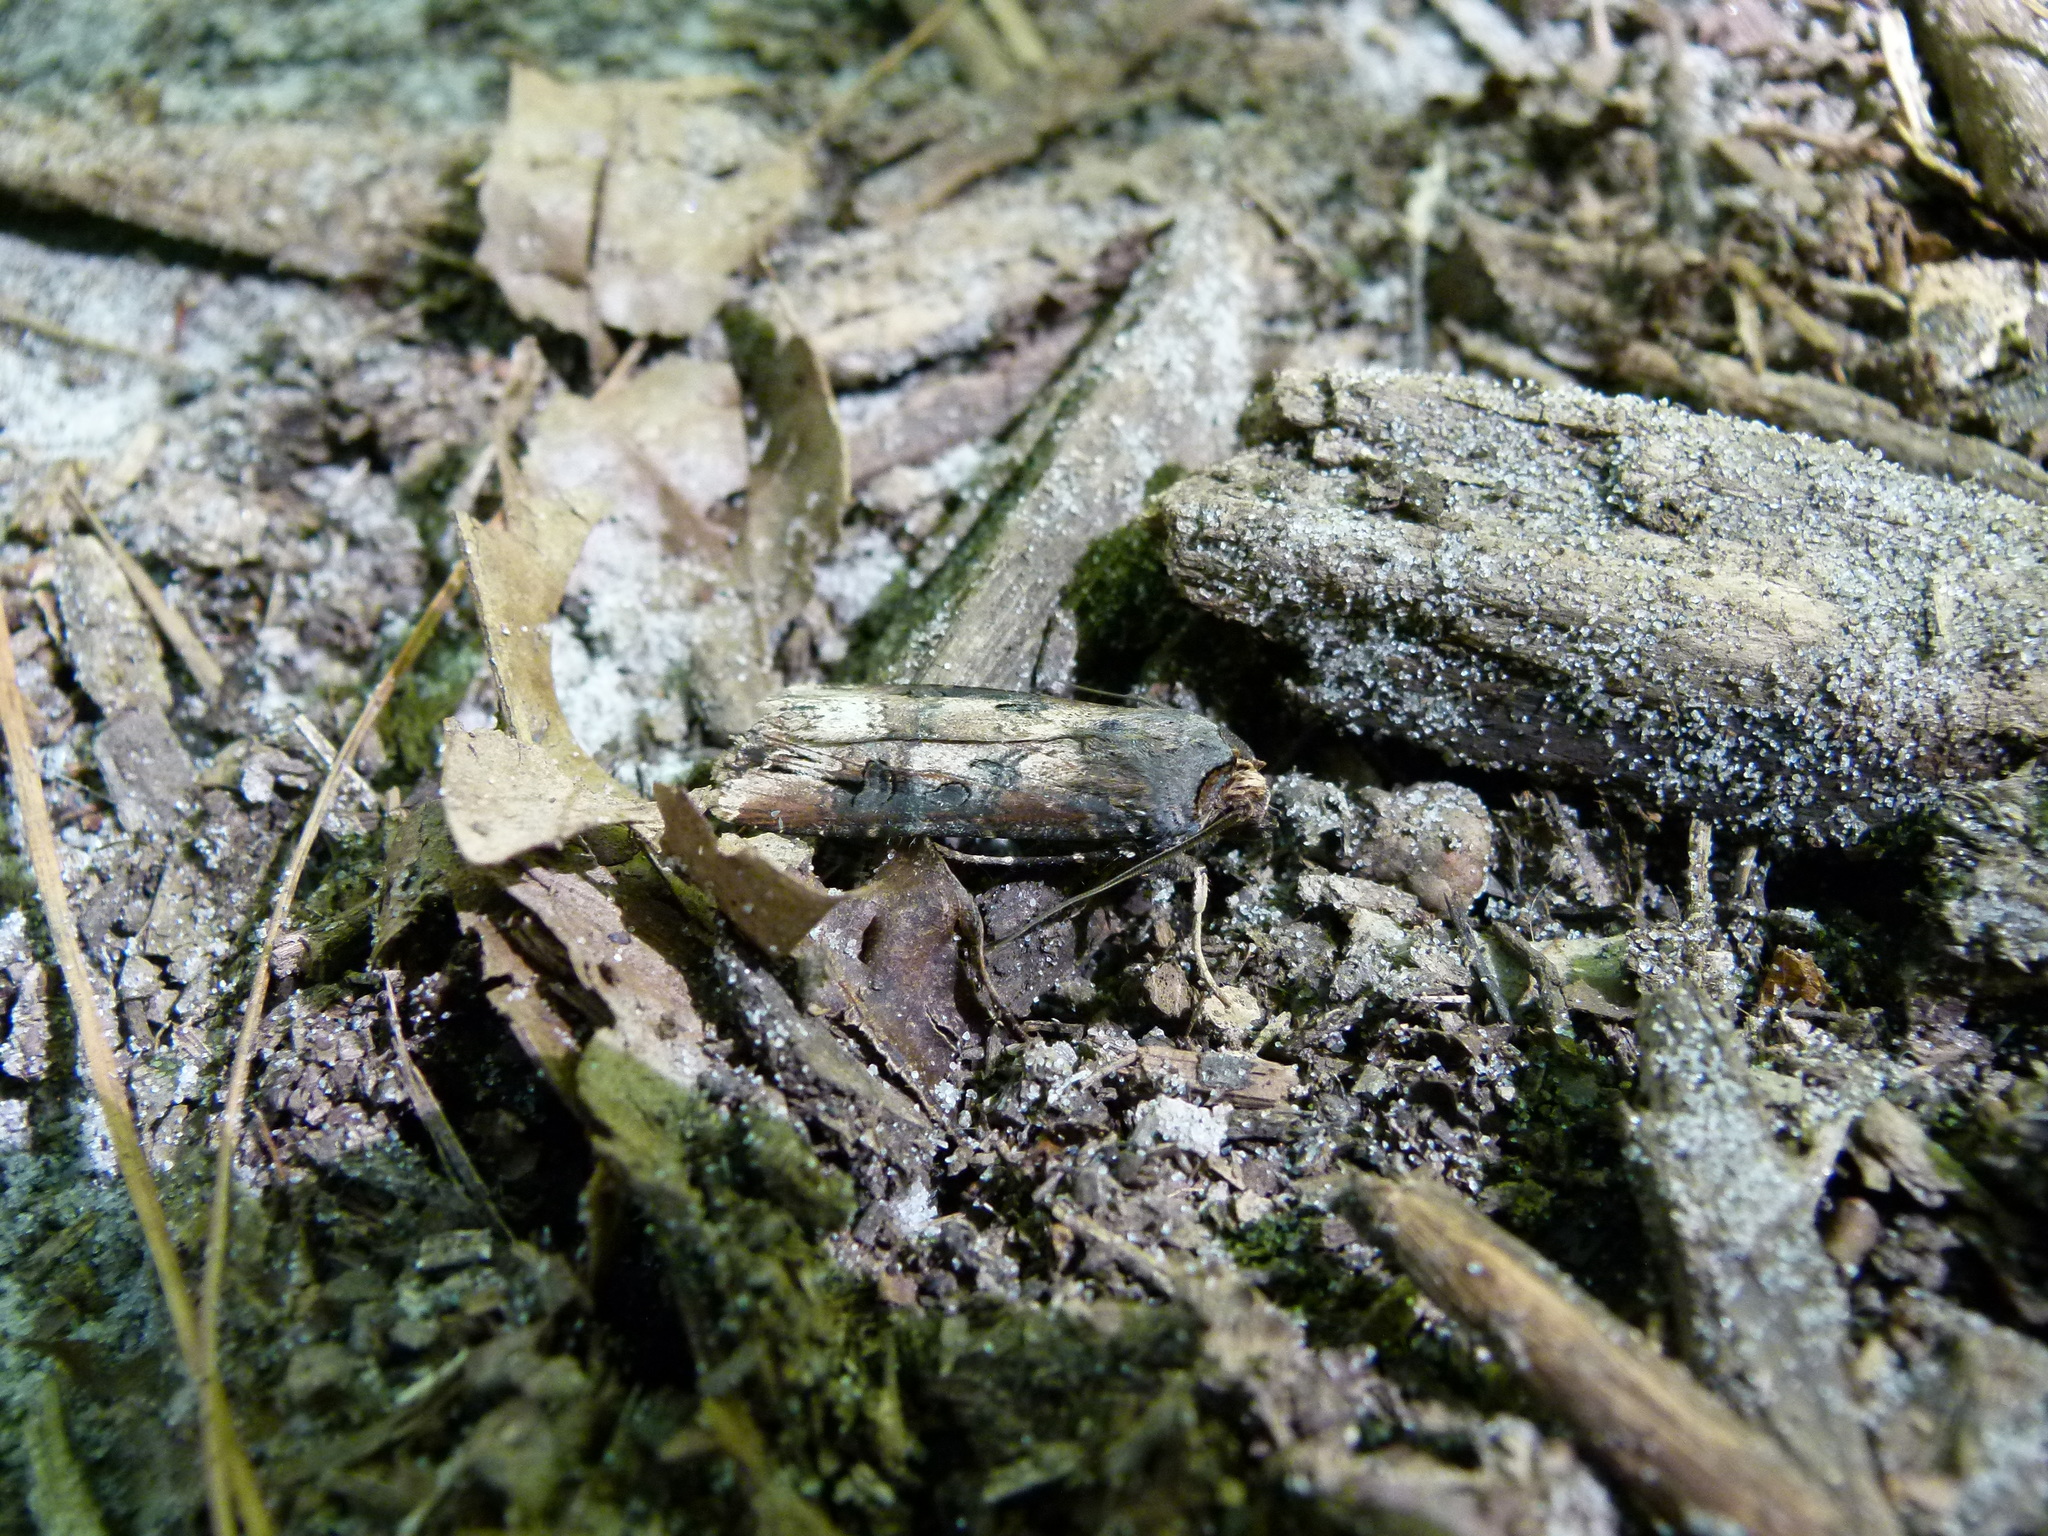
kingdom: Animalia
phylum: Arthropoda
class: Insecta
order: Lepidoptera
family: Noctuidae
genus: Agrotis
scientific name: Agrotis ipsilon
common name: Dark sword-grass
